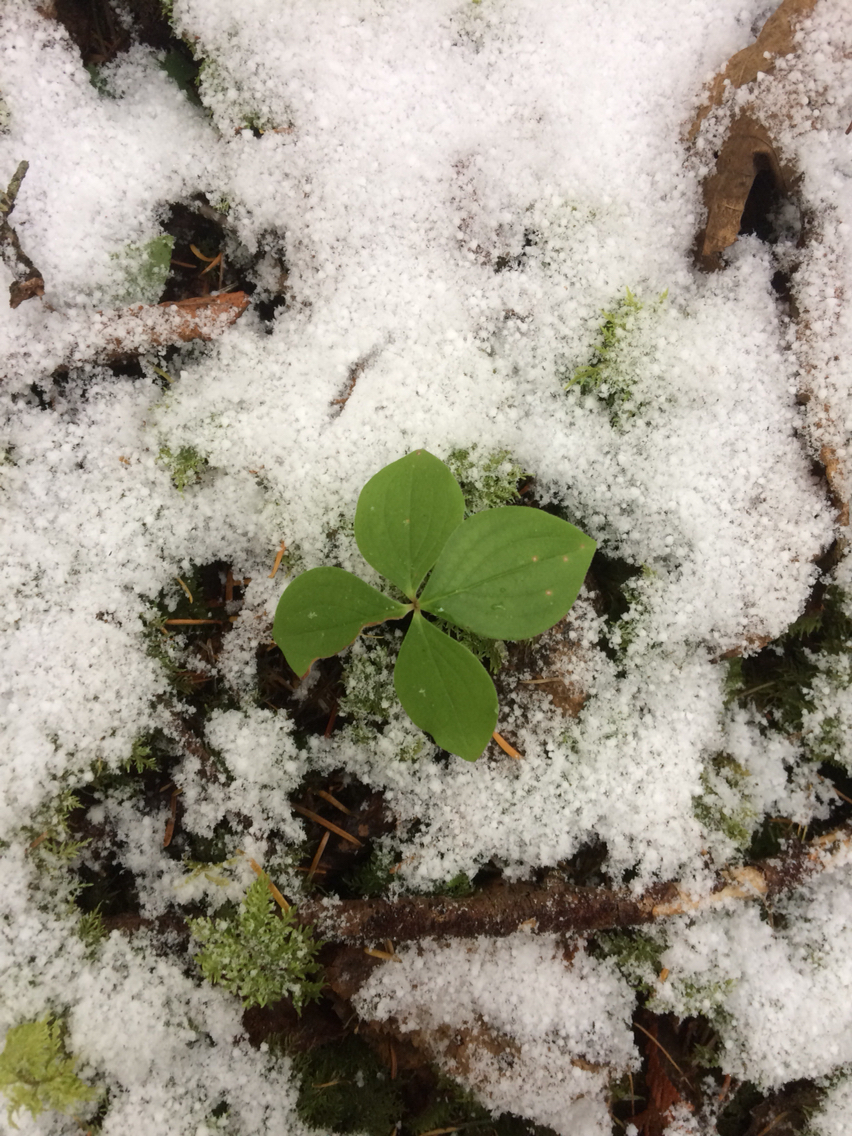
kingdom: Plantae
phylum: Tracheophyta
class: Magnoliopsida
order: Cornales
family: Cornaceae
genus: Cornus
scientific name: Cornus canadensis
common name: Creeping dogwood
